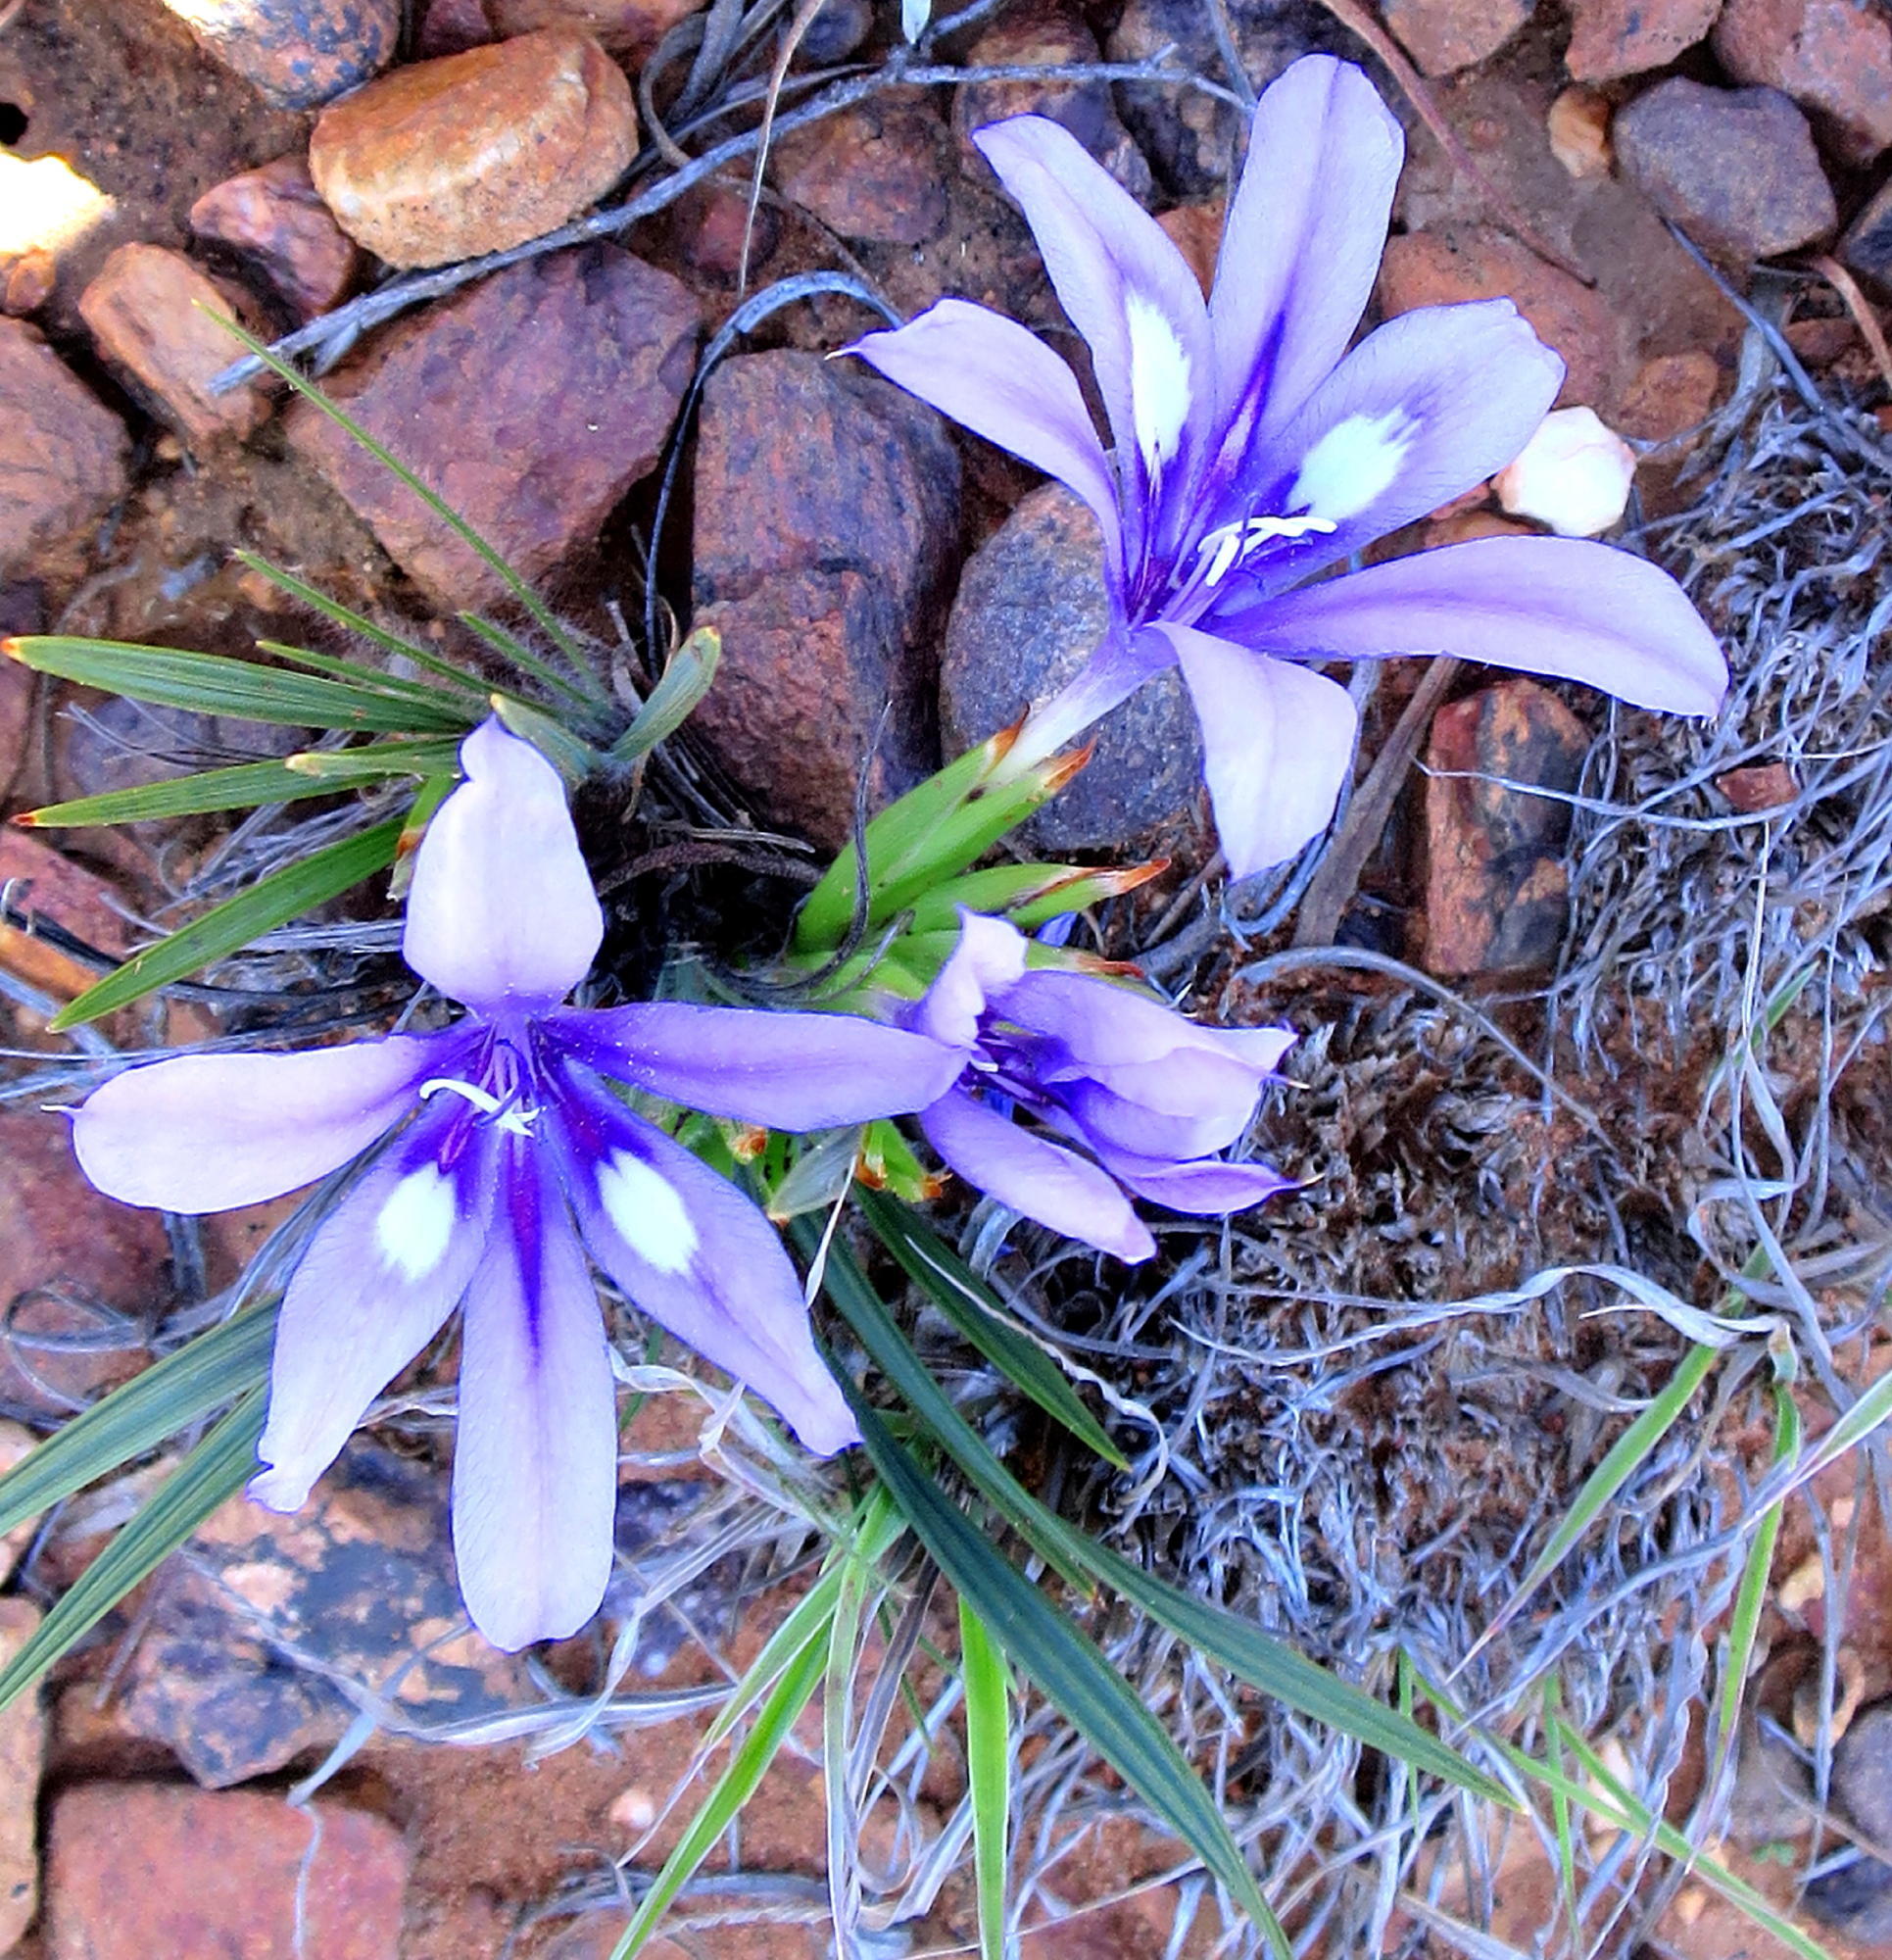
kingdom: Plantae
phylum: Tracheophyta
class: Liliopsida
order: Asparagales
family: Iridaceae
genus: Babiana
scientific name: Babiana sambucina
